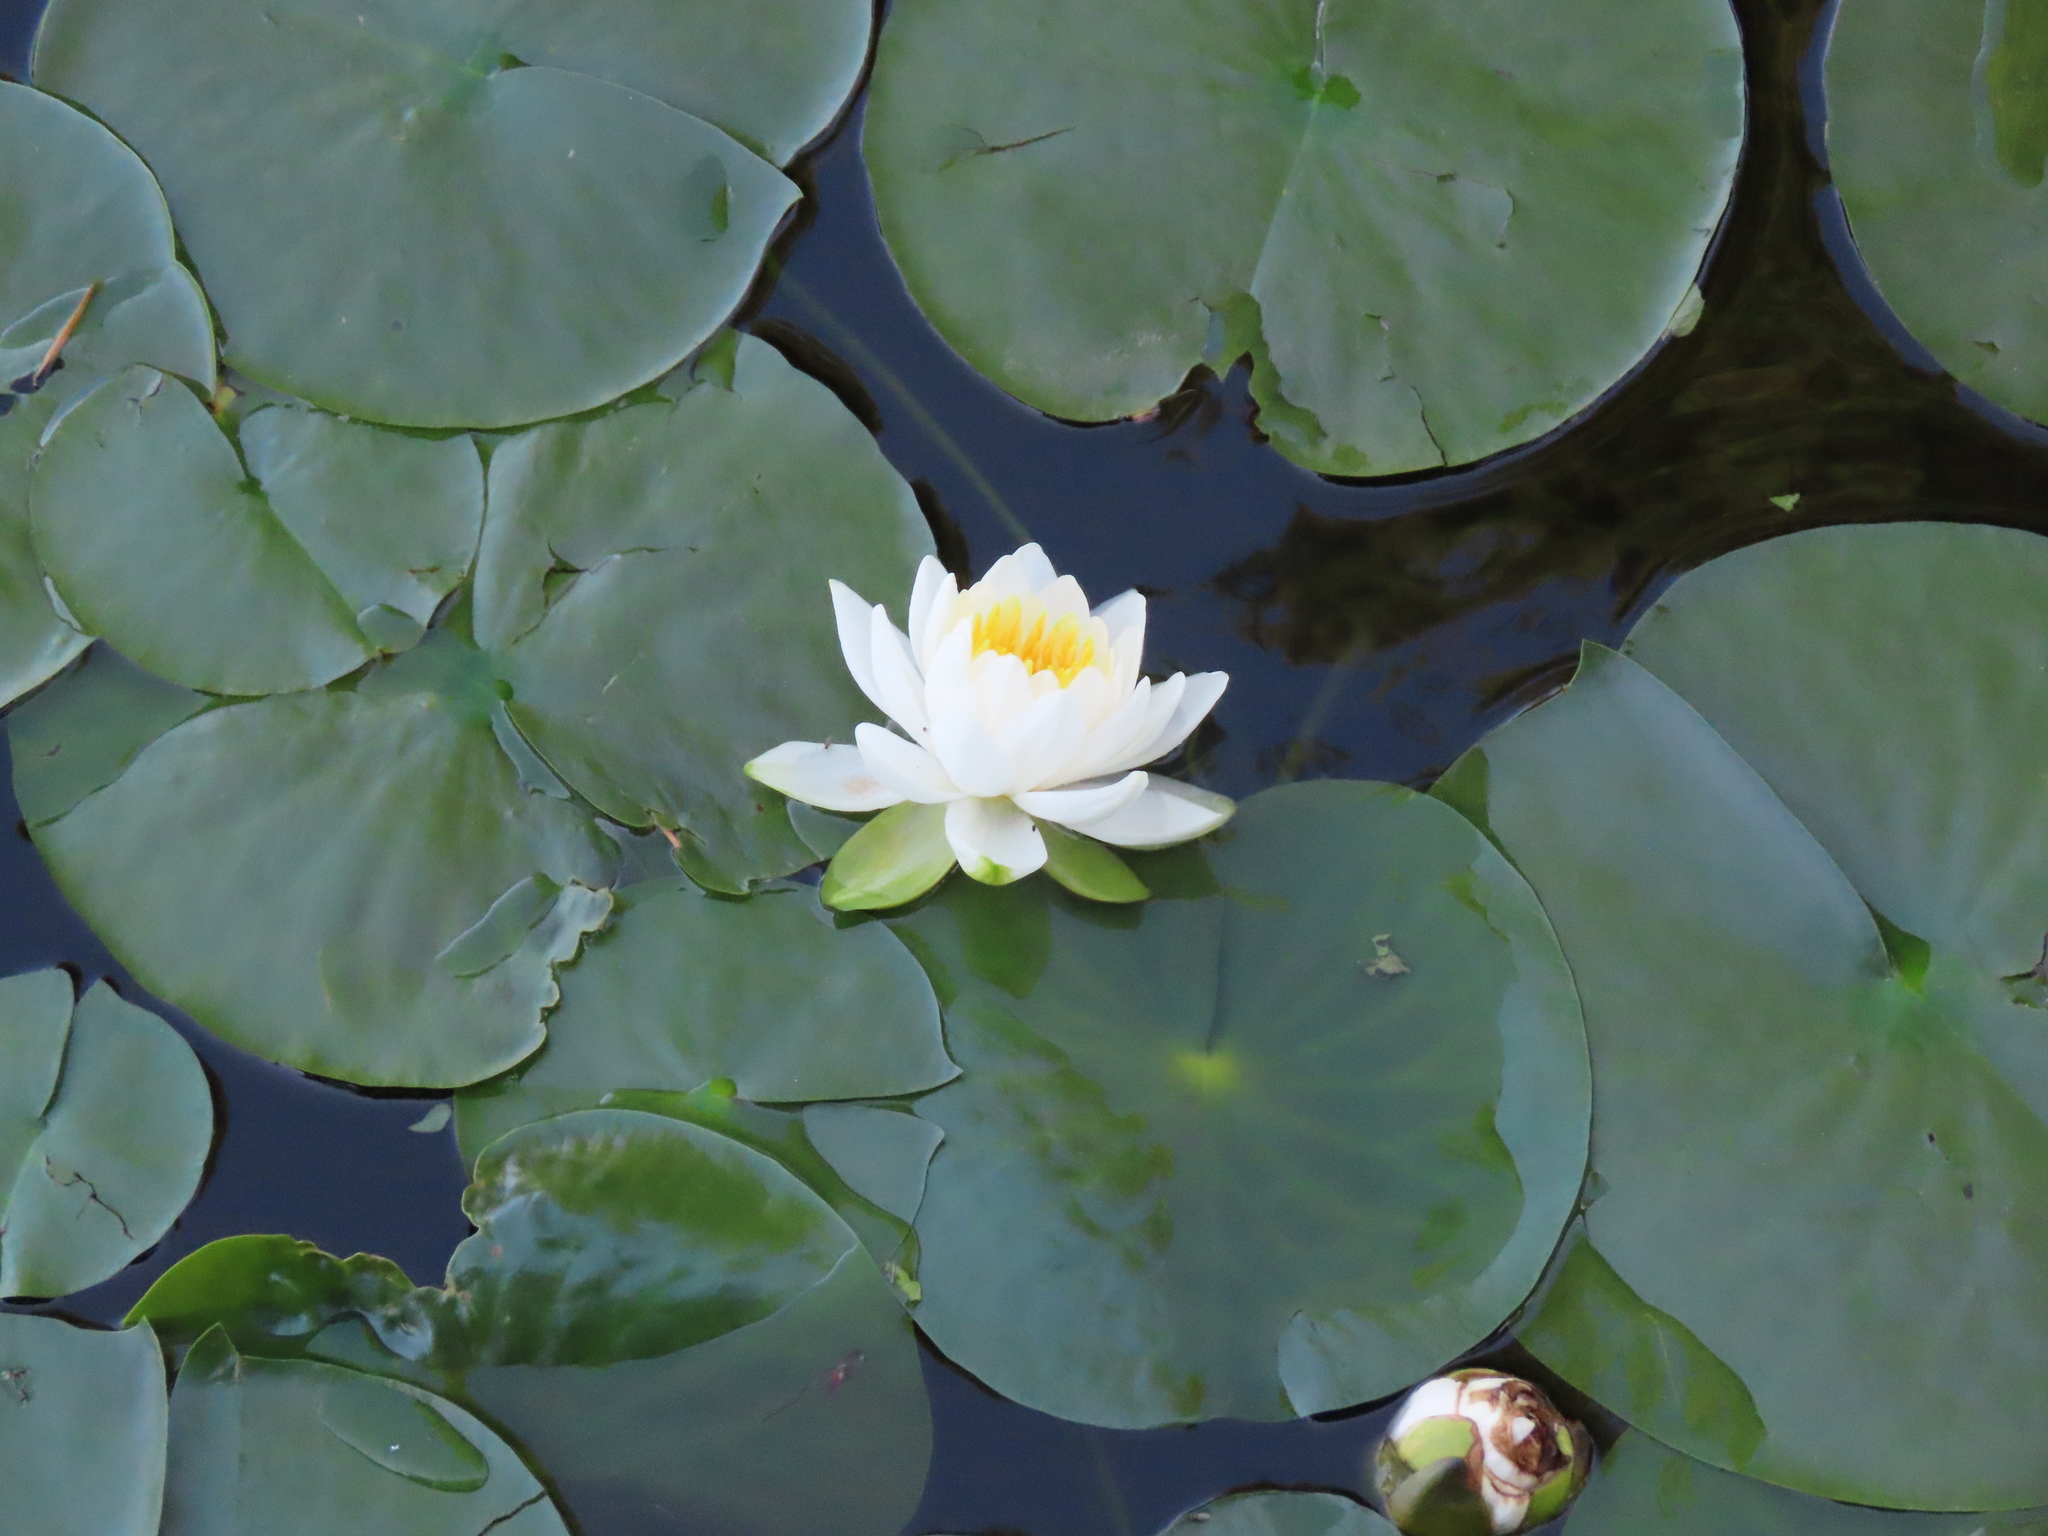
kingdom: Plantae
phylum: Tracheophyta
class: Magnoliopsida
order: Nymphaeales
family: Nymphaeaceae
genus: Nymphaea
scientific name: Nymphaea alba
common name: White water-lily
